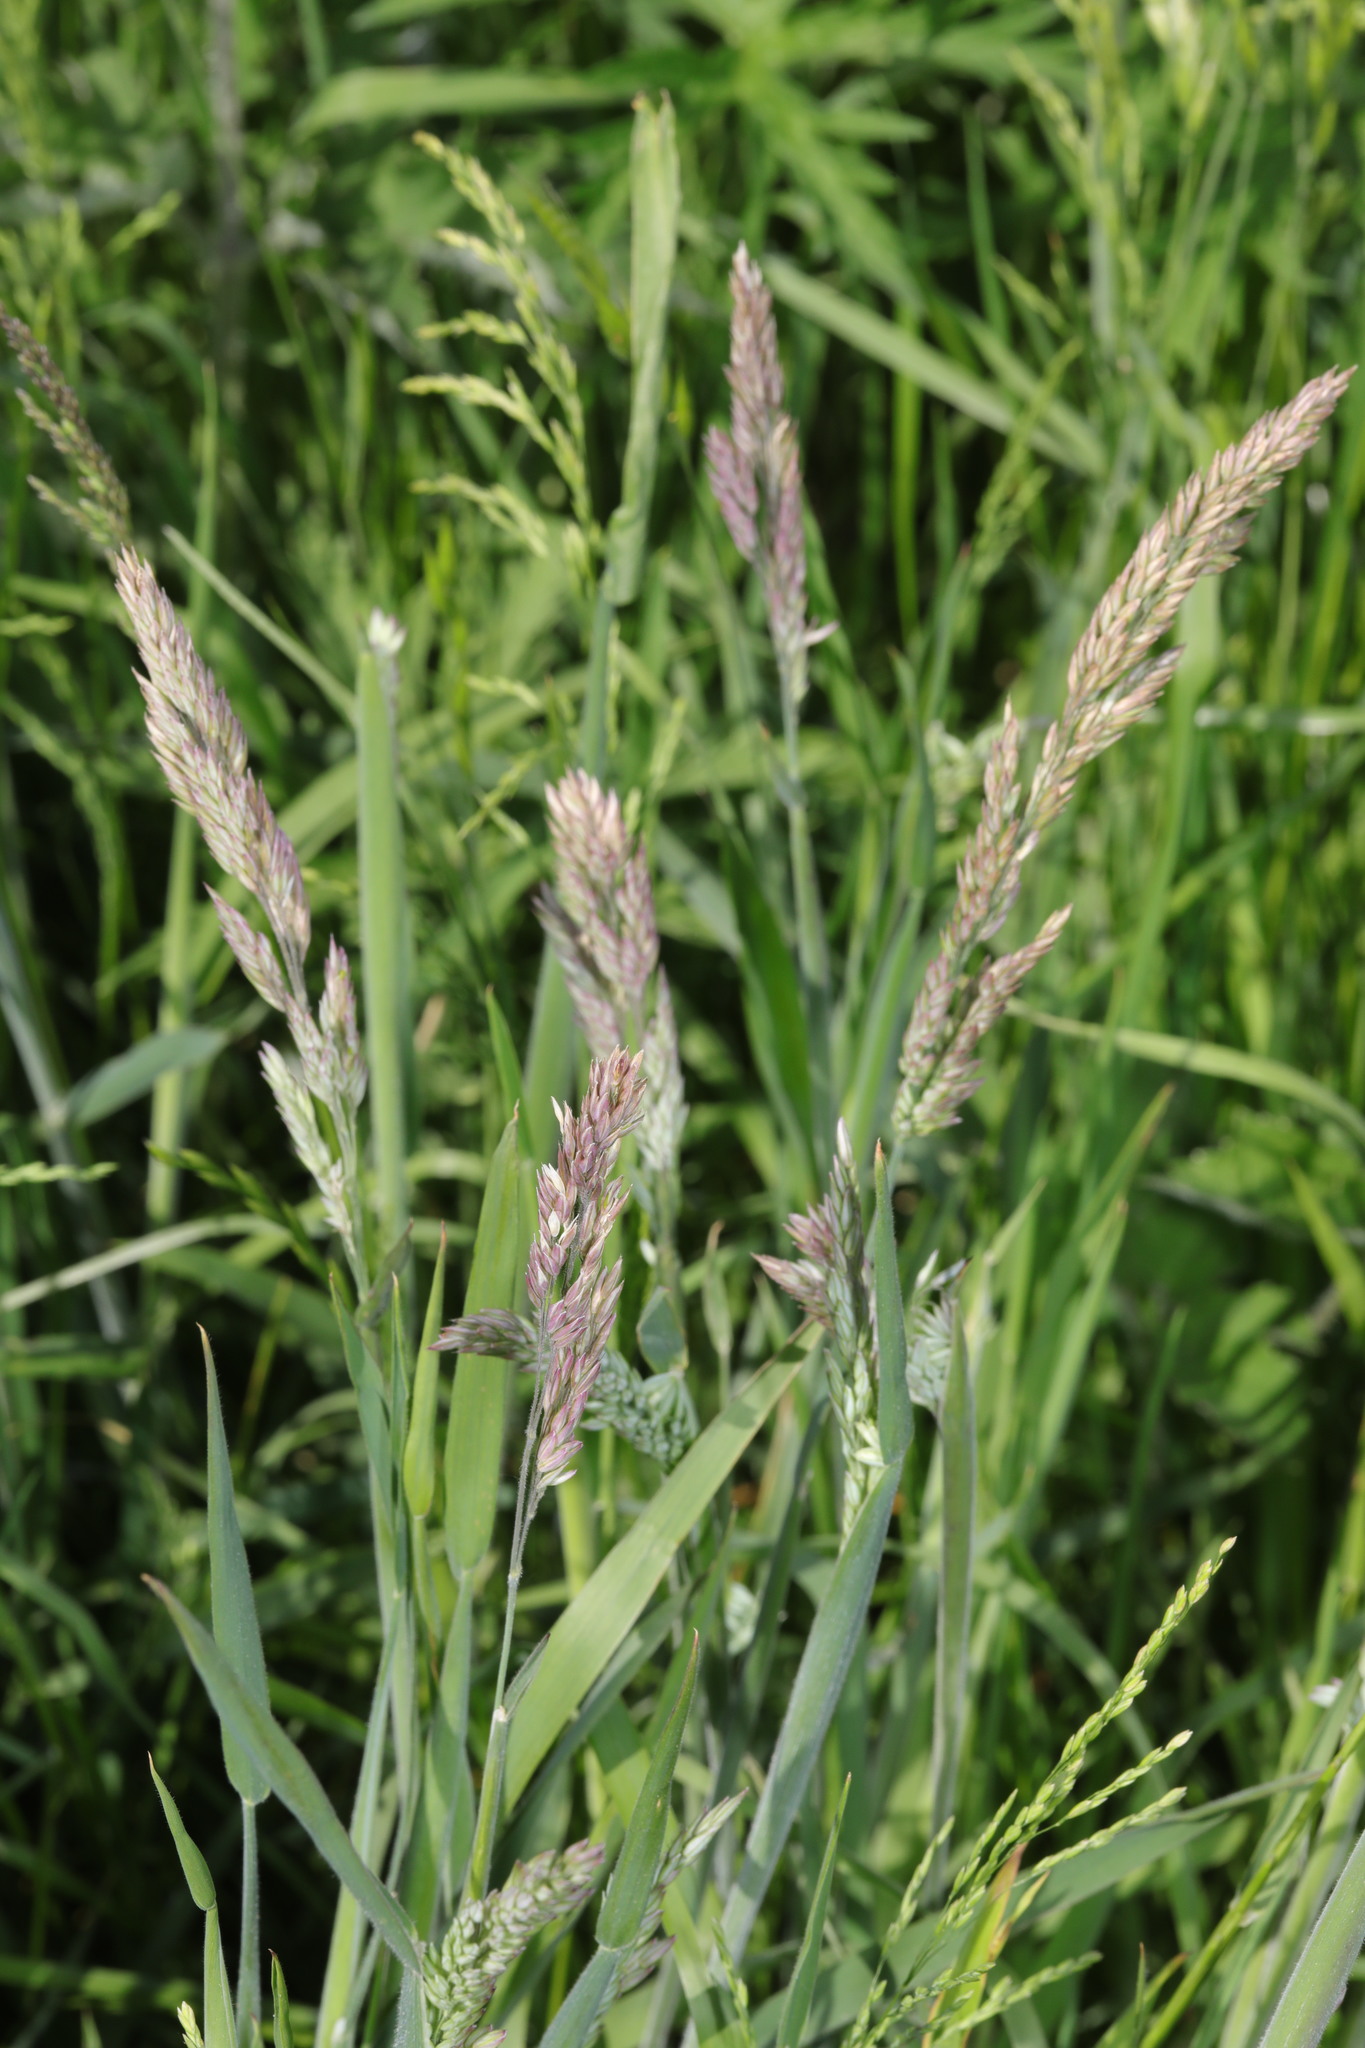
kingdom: Plantae
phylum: Tracheophyta
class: Liliopsida
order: Poales
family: Poaceae
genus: Holcus
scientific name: Holcus lanatus
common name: Yorkshire-fog
